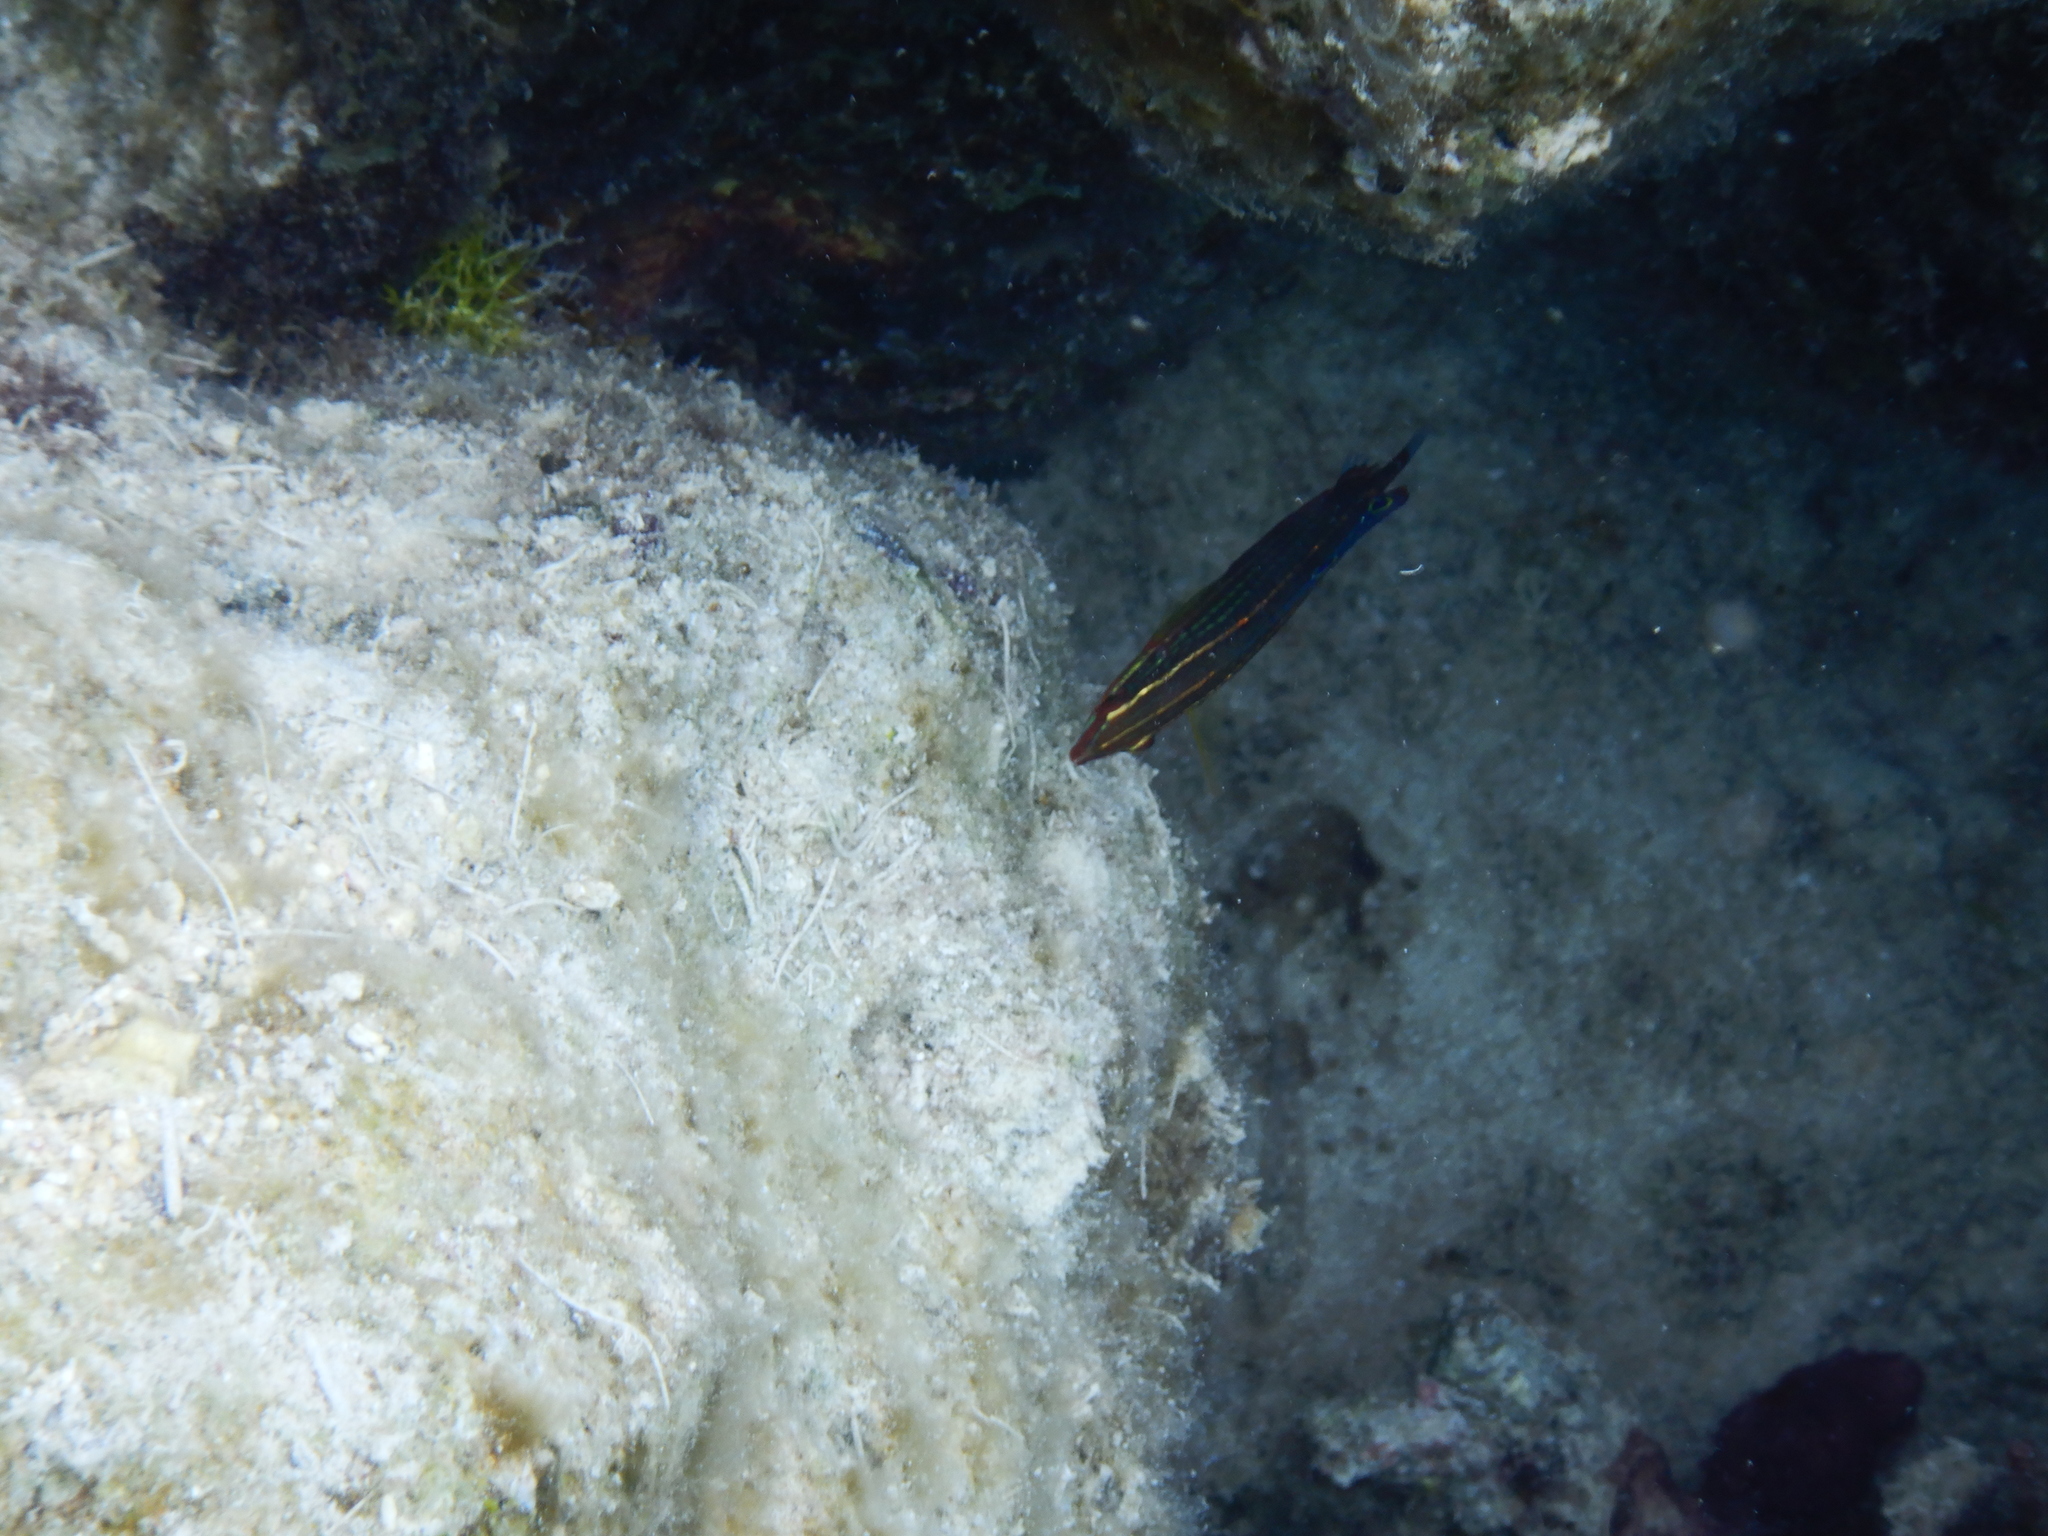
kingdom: Animalia
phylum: Chordata
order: Perciformes
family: Labridae
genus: Halichoeres
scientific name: Halichoeres biocellatus
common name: False-eyed wrasse
